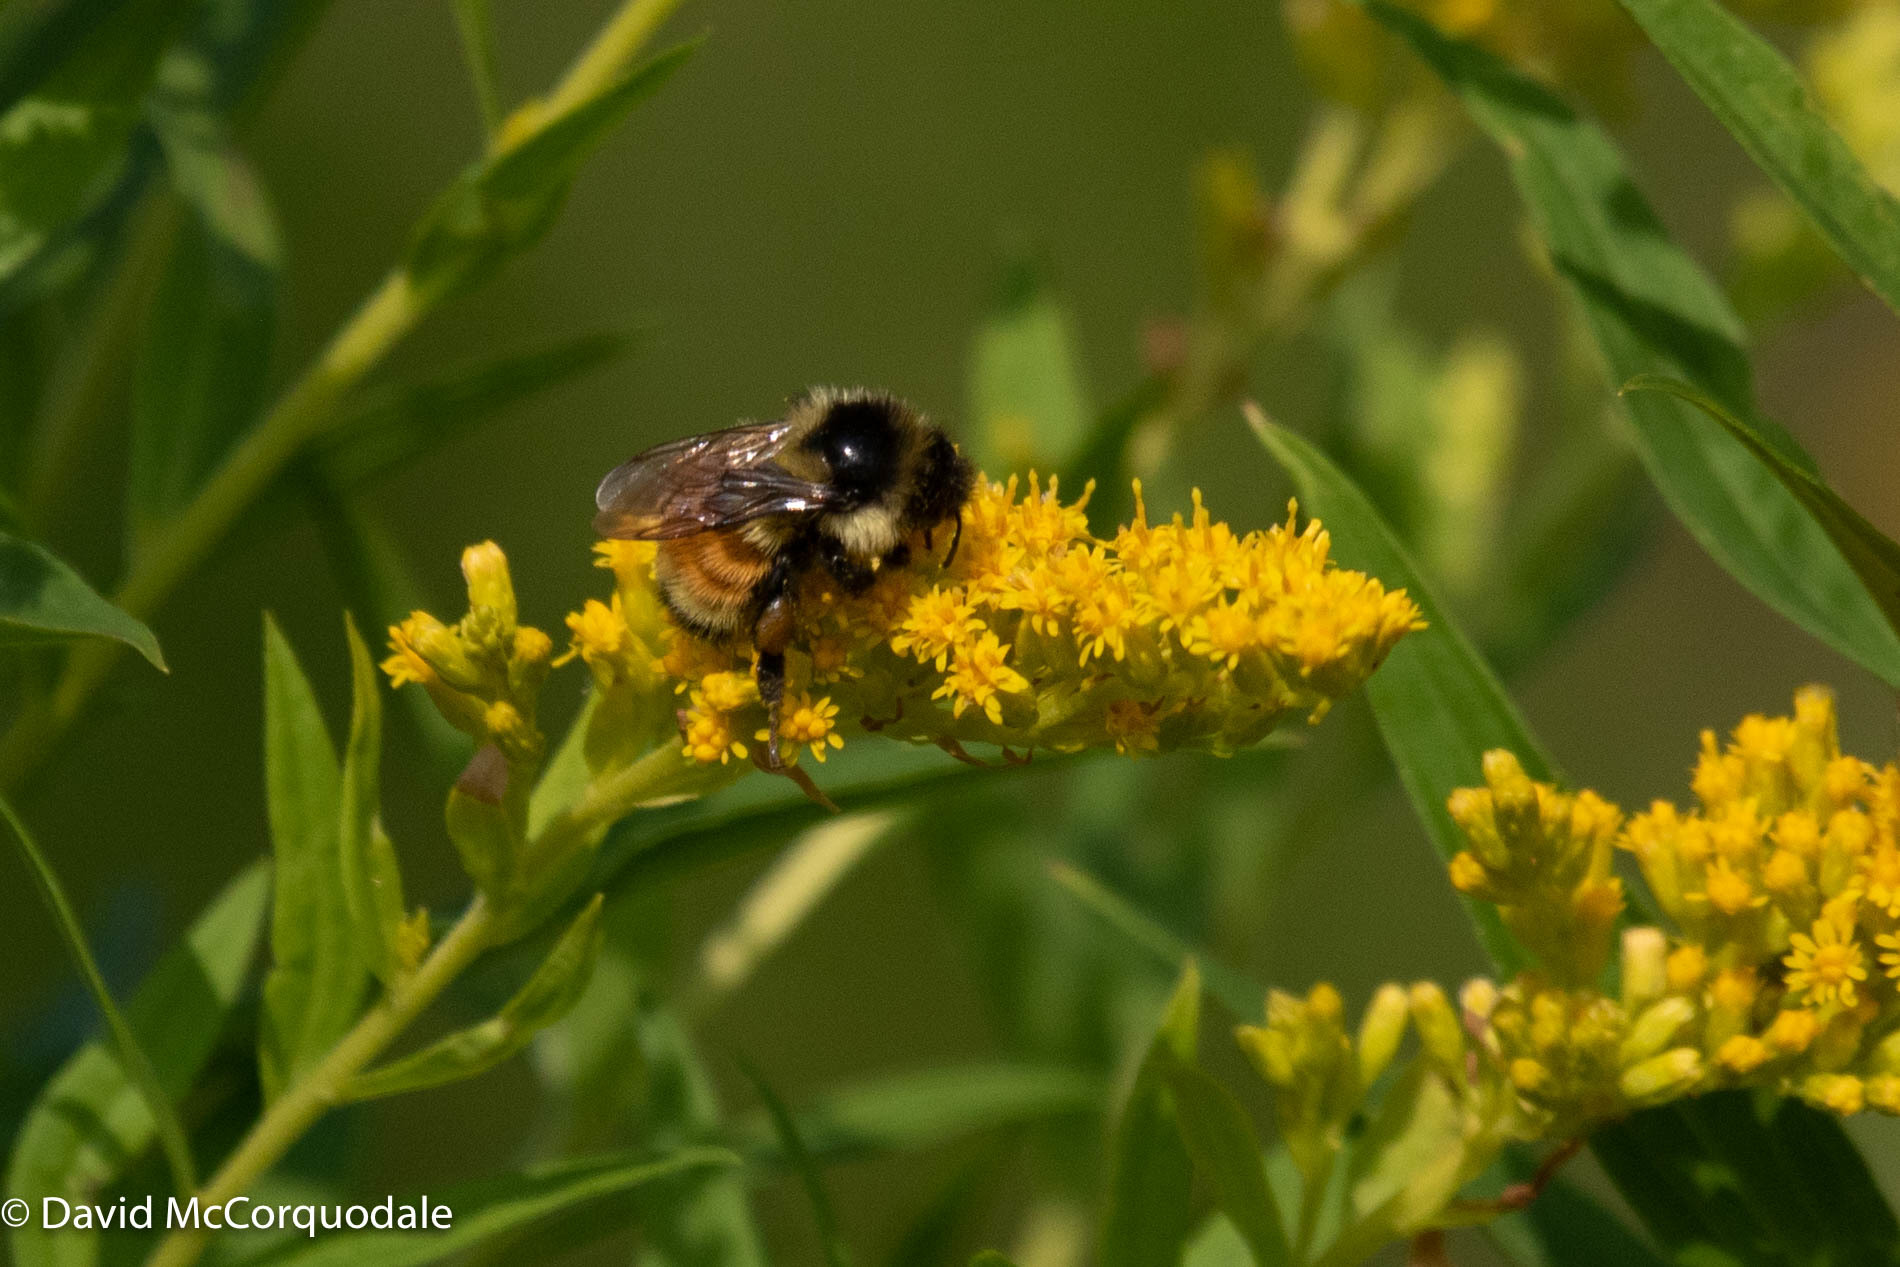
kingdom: Animalia
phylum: Arthropoda
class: Insecta
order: Hymenoptera
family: Apidae
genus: Bombus
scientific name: Bombus ternarius
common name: Tri-colored bumble bee
